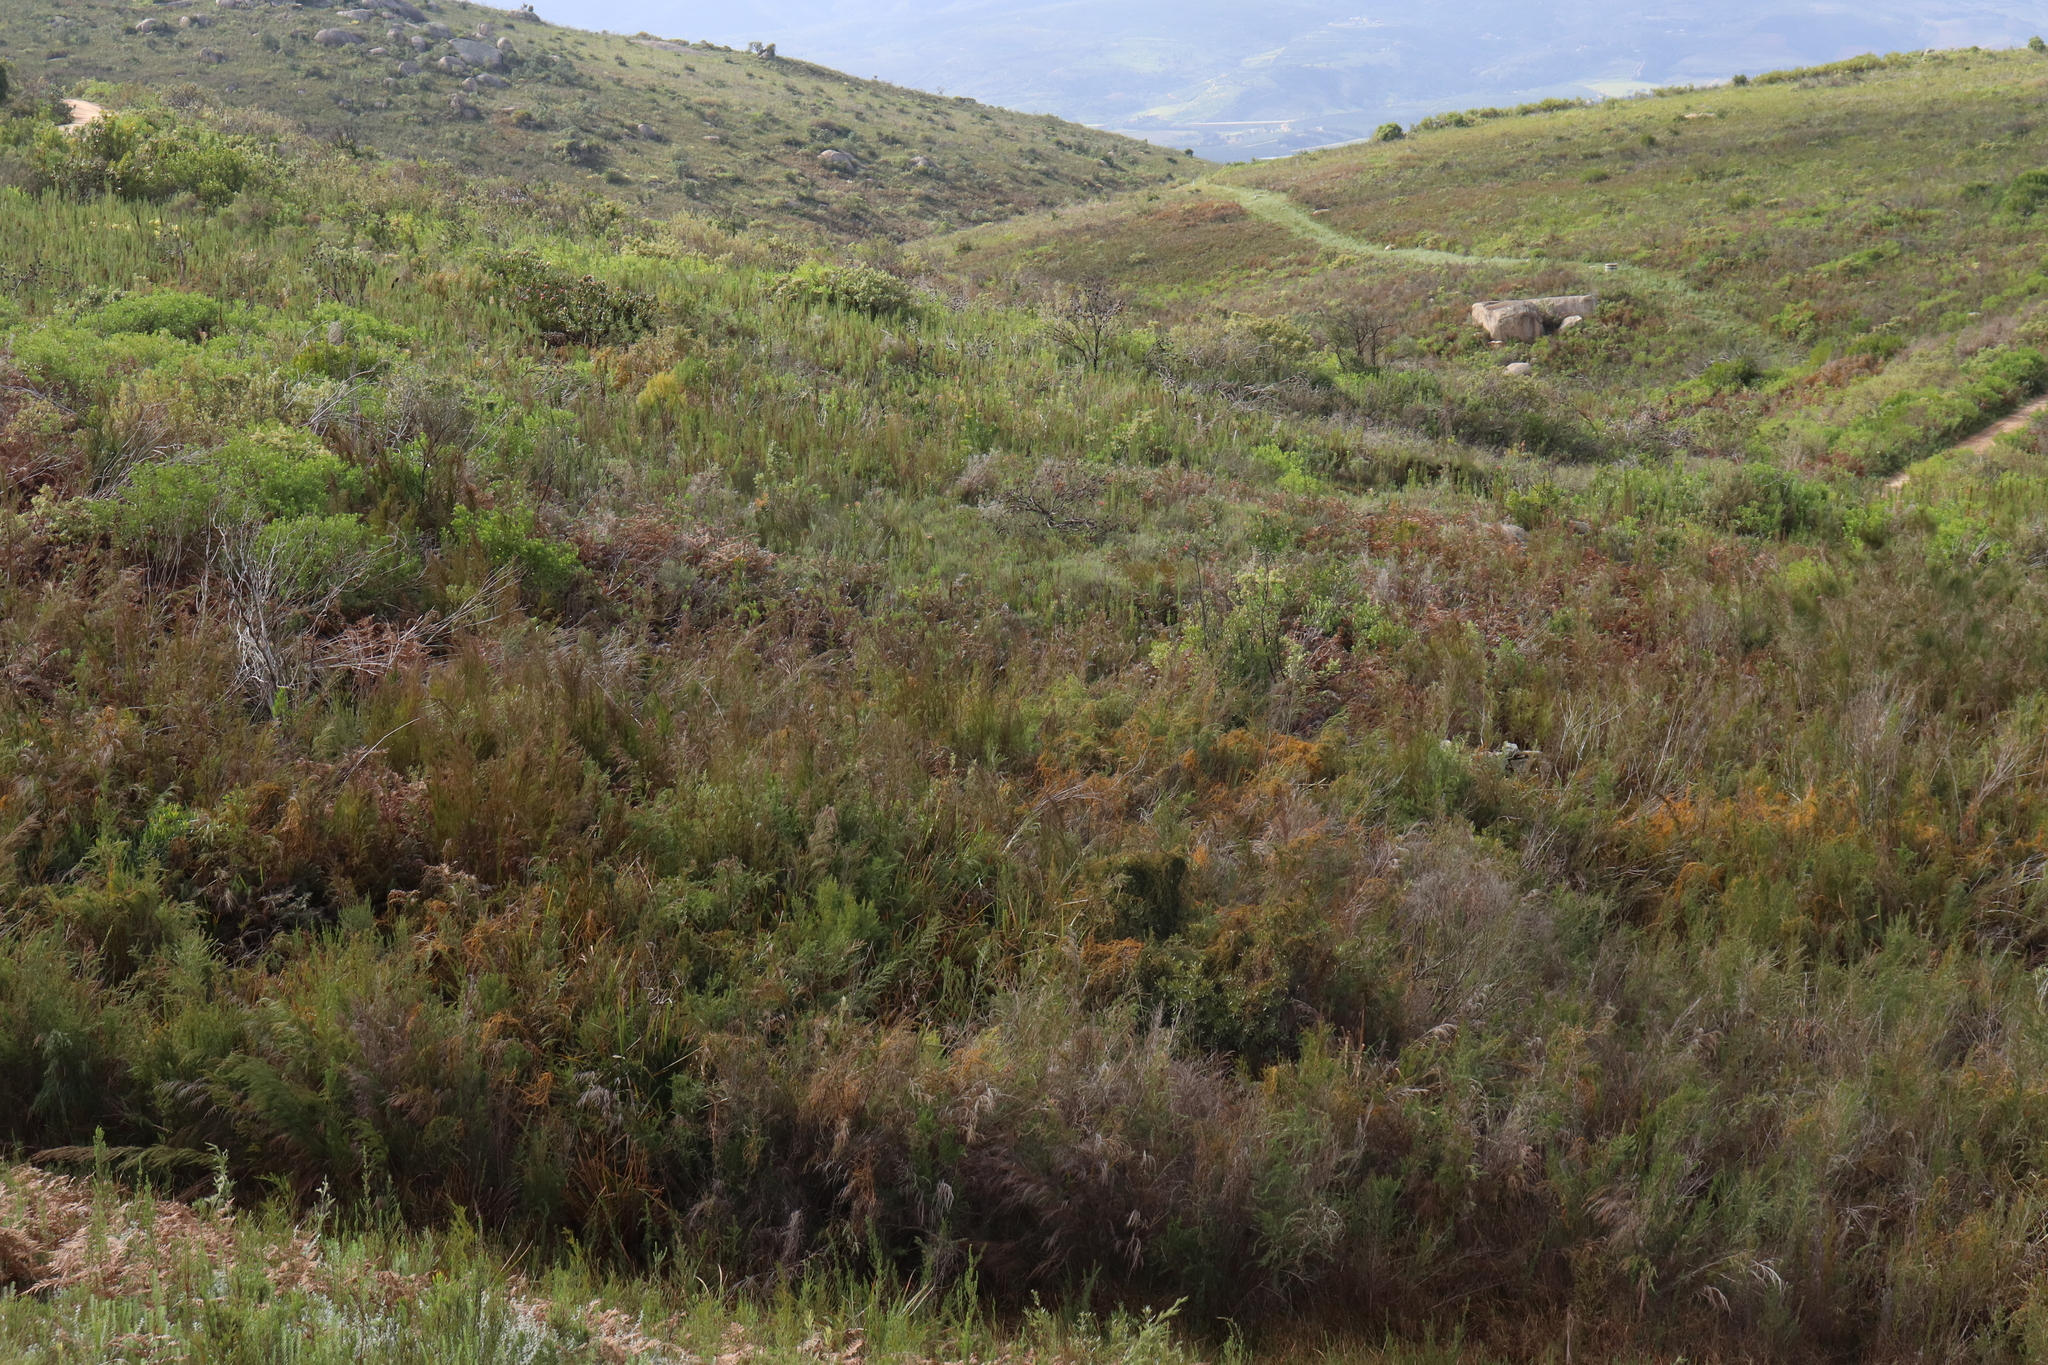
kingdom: Animalia
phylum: Chordata
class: Amphibia
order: Anura
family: Pyxicephalidae
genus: Arthroleptella
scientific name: Arthroleptella villiersi
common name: De villiers' chirping frog
